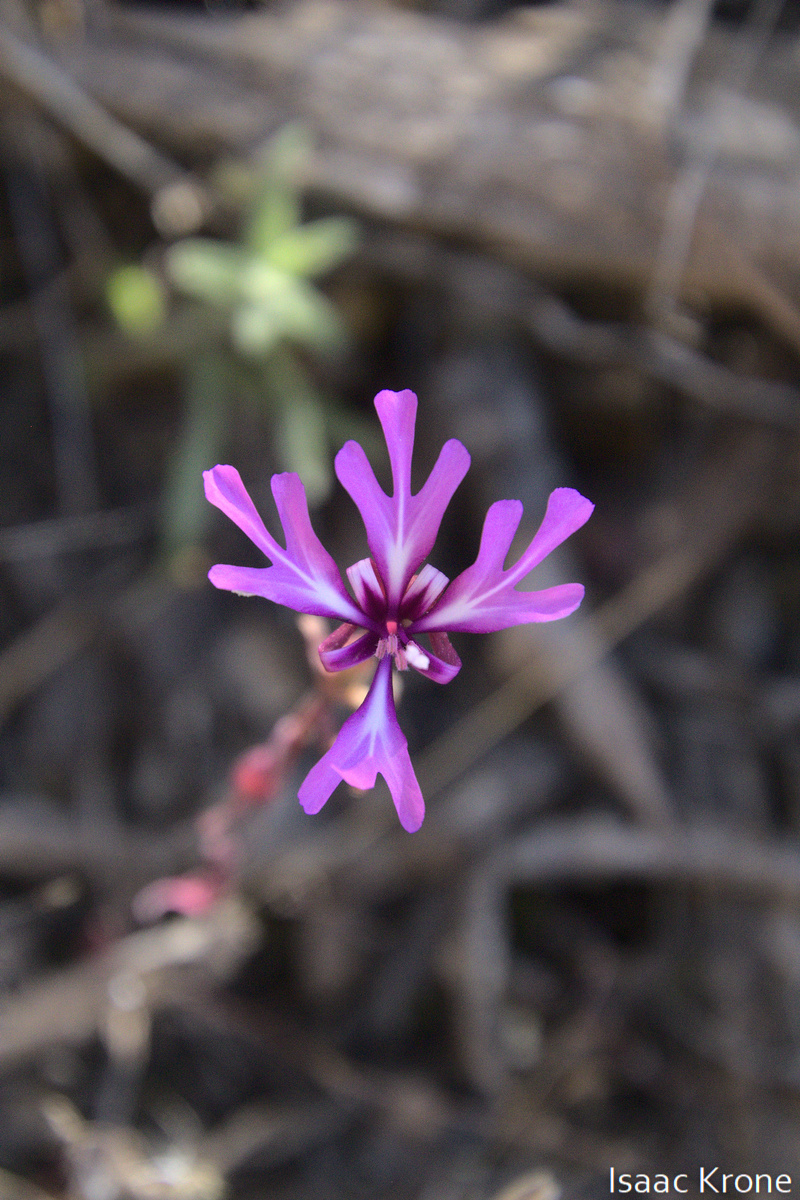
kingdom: Plantae
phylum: Tracheophyta
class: Magnoliopsida
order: Myrtales
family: Onagraceae
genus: Clarkia
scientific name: Clarkia concinna
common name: Red-ribbons
